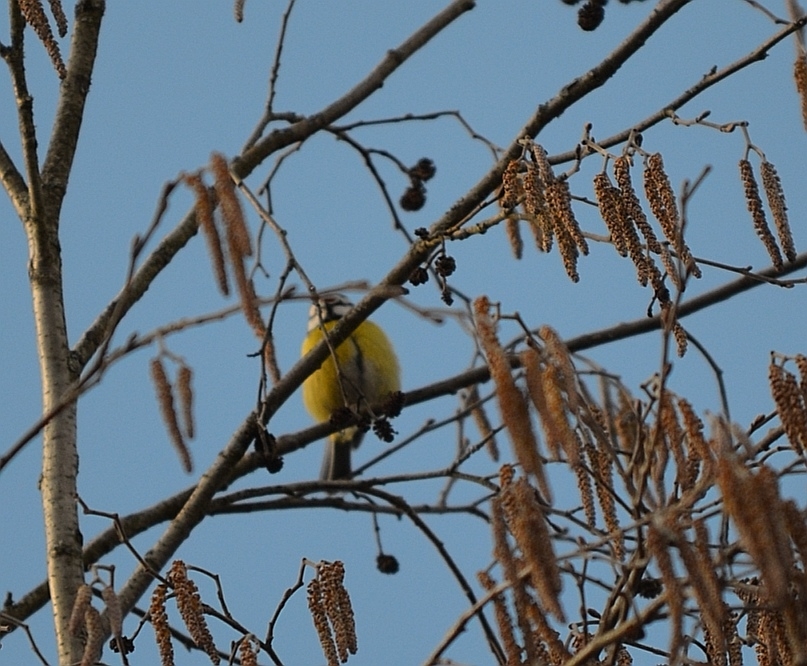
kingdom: Animalia
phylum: Chordata
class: Aves
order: Passeriformes
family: Paridae
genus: Cyanistes
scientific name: Cyanistes caeruleus
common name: Eurasian blue tit
